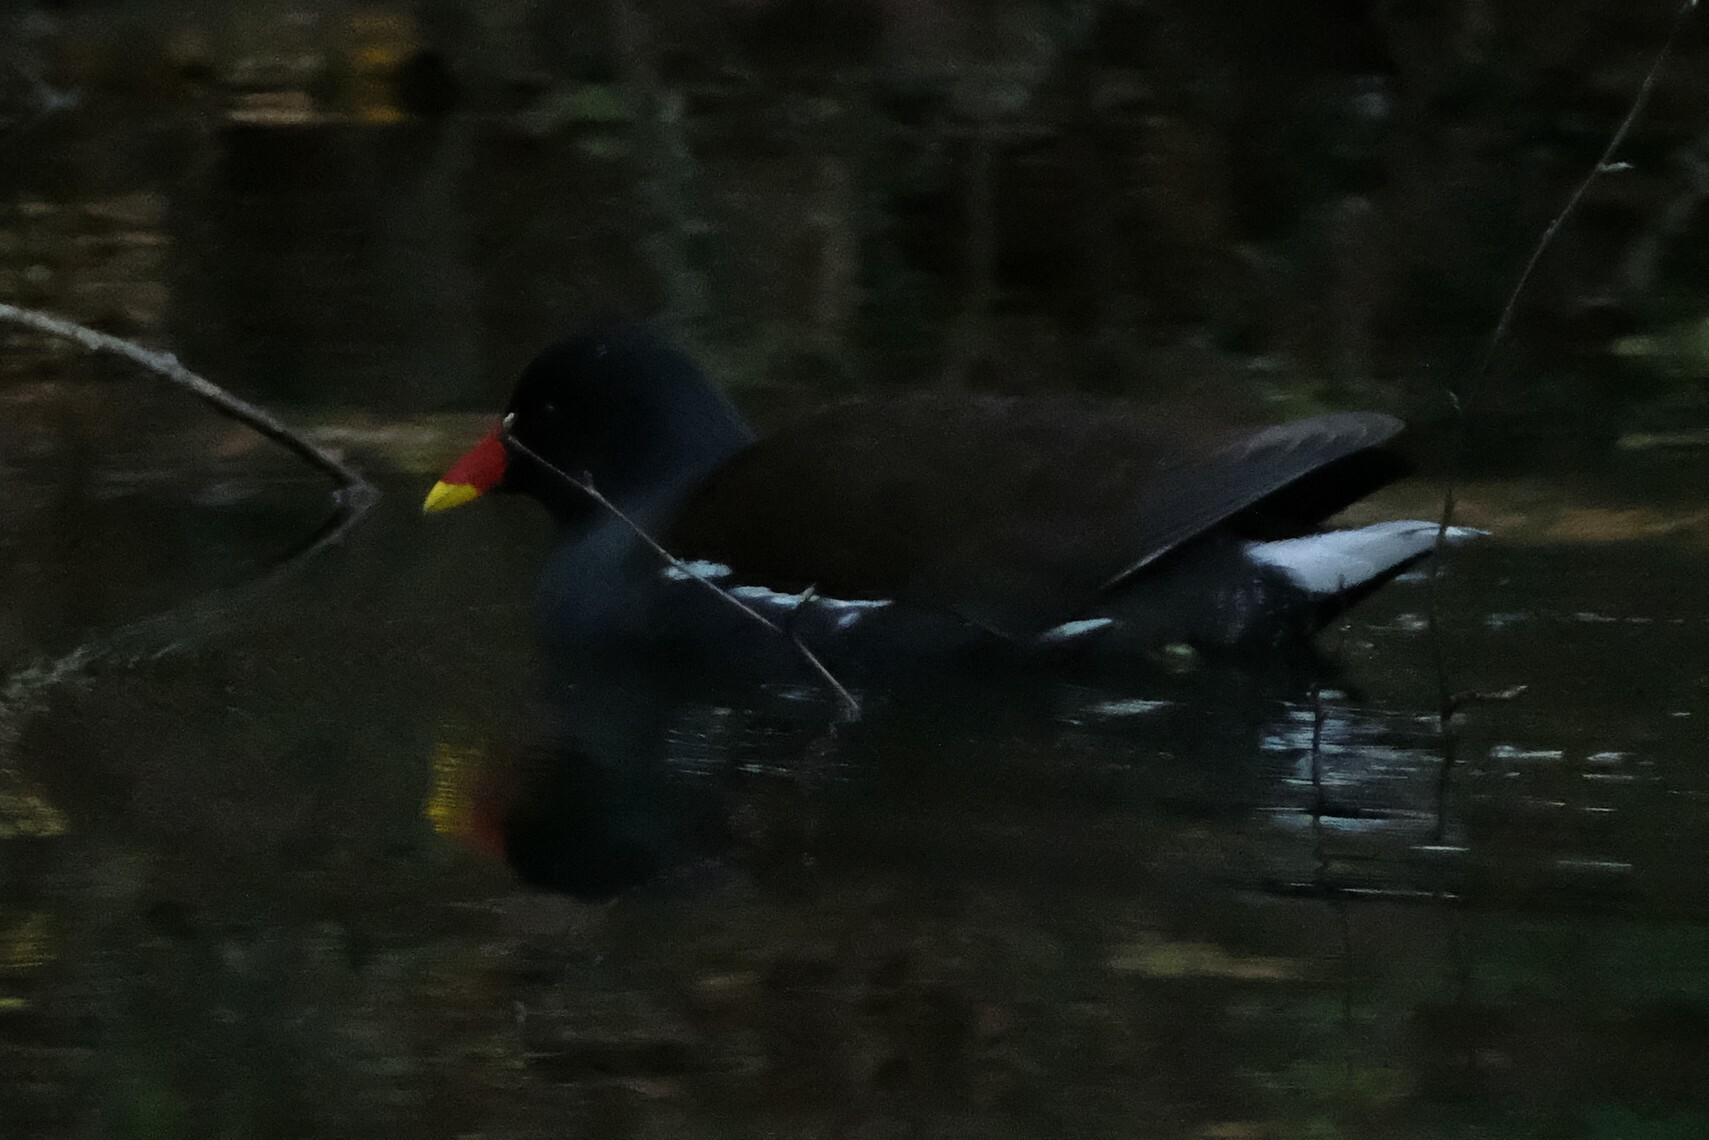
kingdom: Animalia
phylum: Chordata
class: Aves
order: Gruiformes
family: Rallidae
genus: Gallinula
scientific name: Gallinula chloropus
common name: Common moorhen
